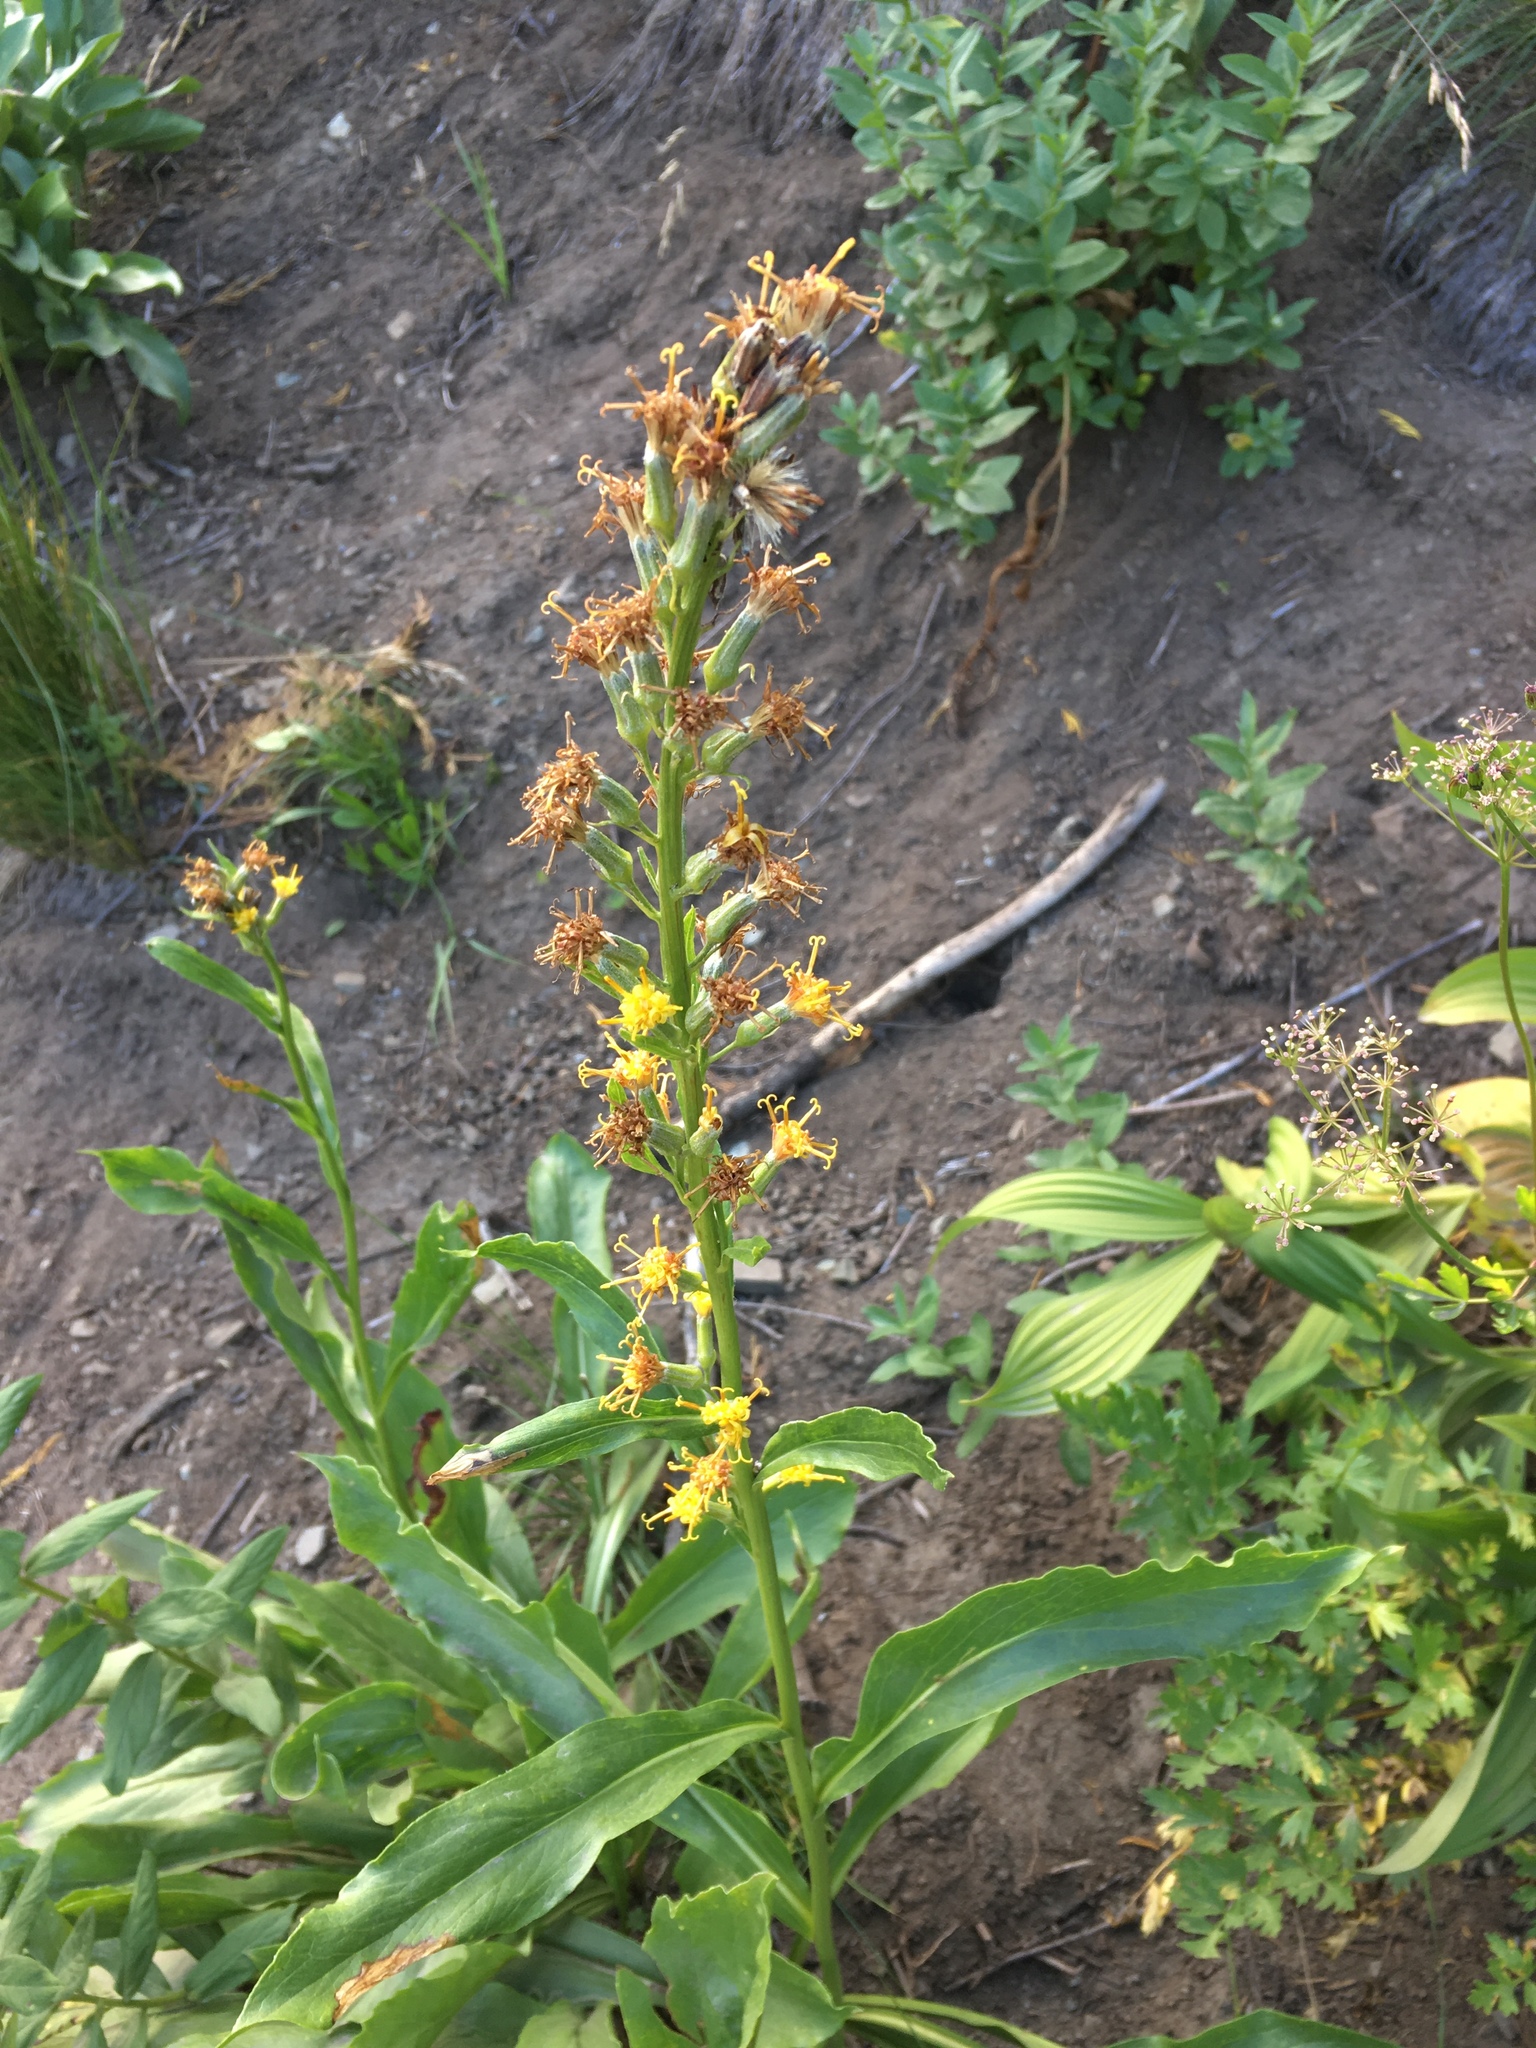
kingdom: Plantae
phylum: Tracheophyta
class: Magnoliopsida
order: Asterales
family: Asteraceae
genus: Rainiera
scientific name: Rainiera stricta
